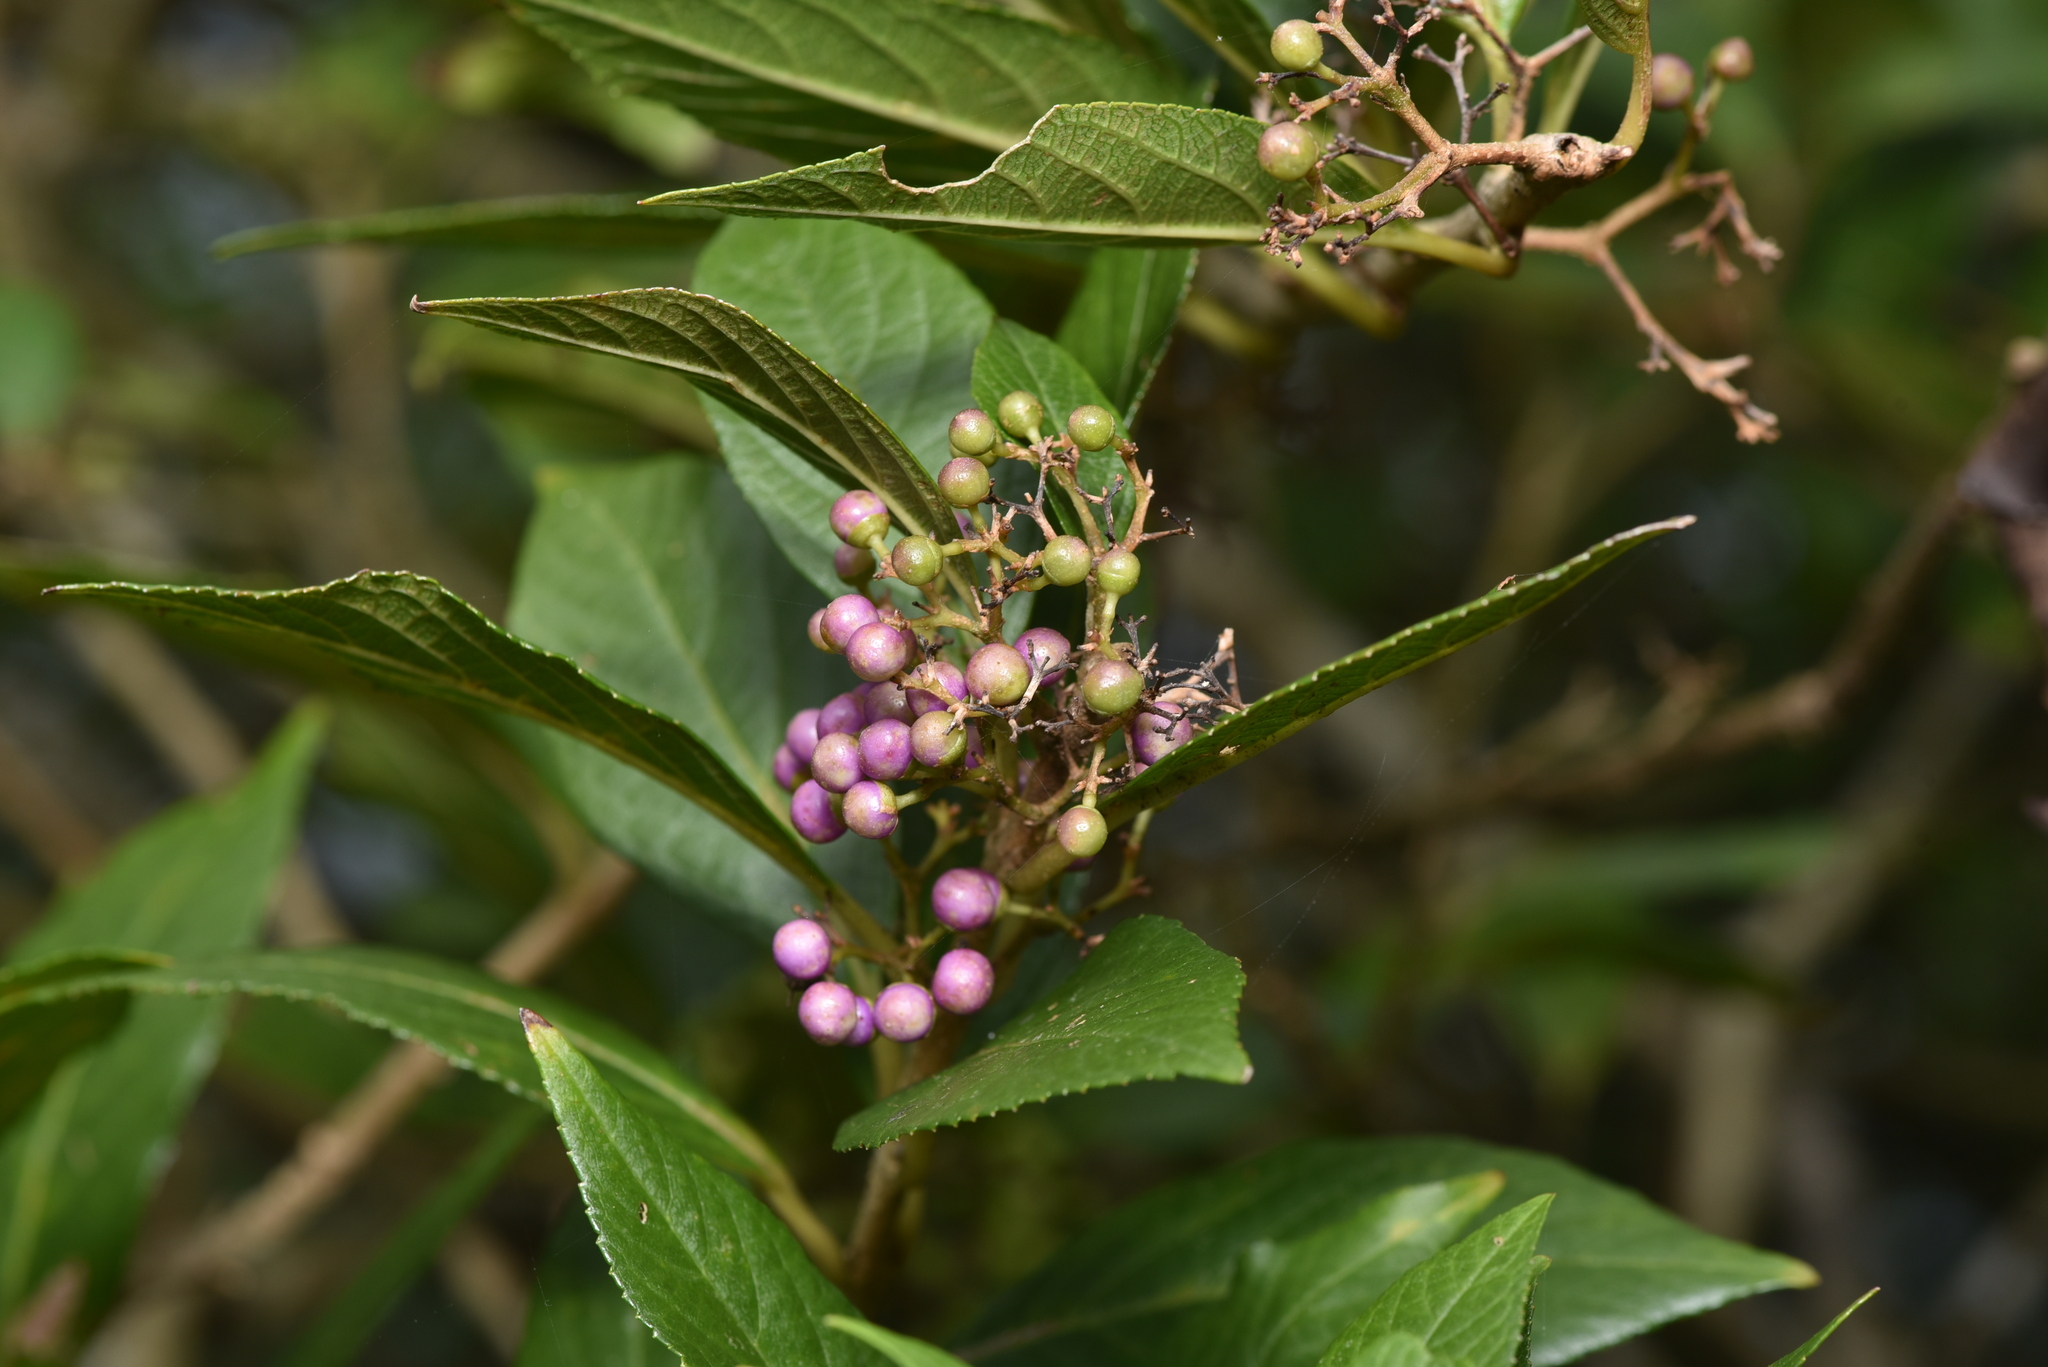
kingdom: Plantae
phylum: Tracheophyta
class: Magnoliopsida
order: Lamiales
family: Lamiaceae
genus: Callicarpa
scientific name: Callicarpa japonica
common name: Japanese beauty-berry
